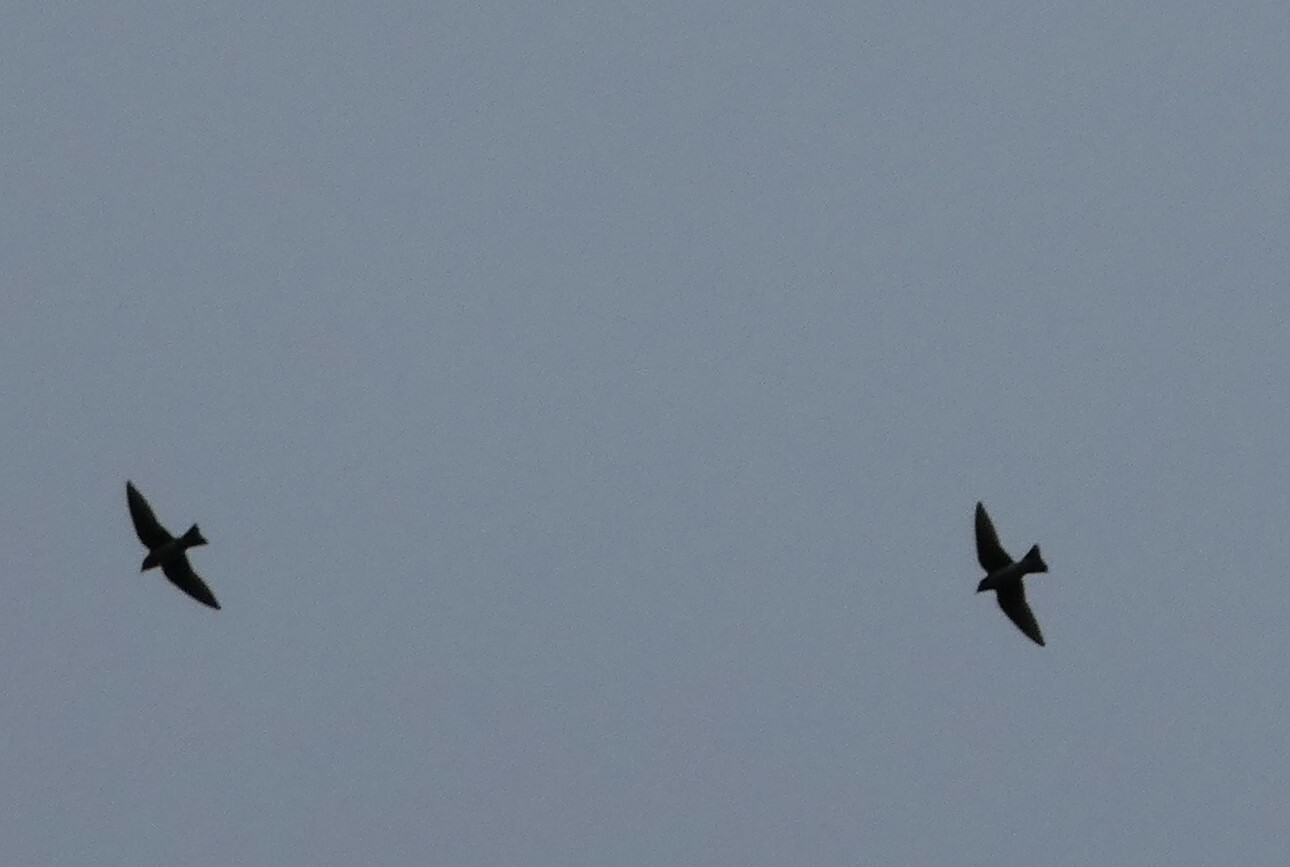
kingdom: Animalia
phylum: Chordata
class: Aves
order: Passeriformes
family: Hirundinidae
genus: Progne
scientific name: Progne subis
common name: Purple martin
